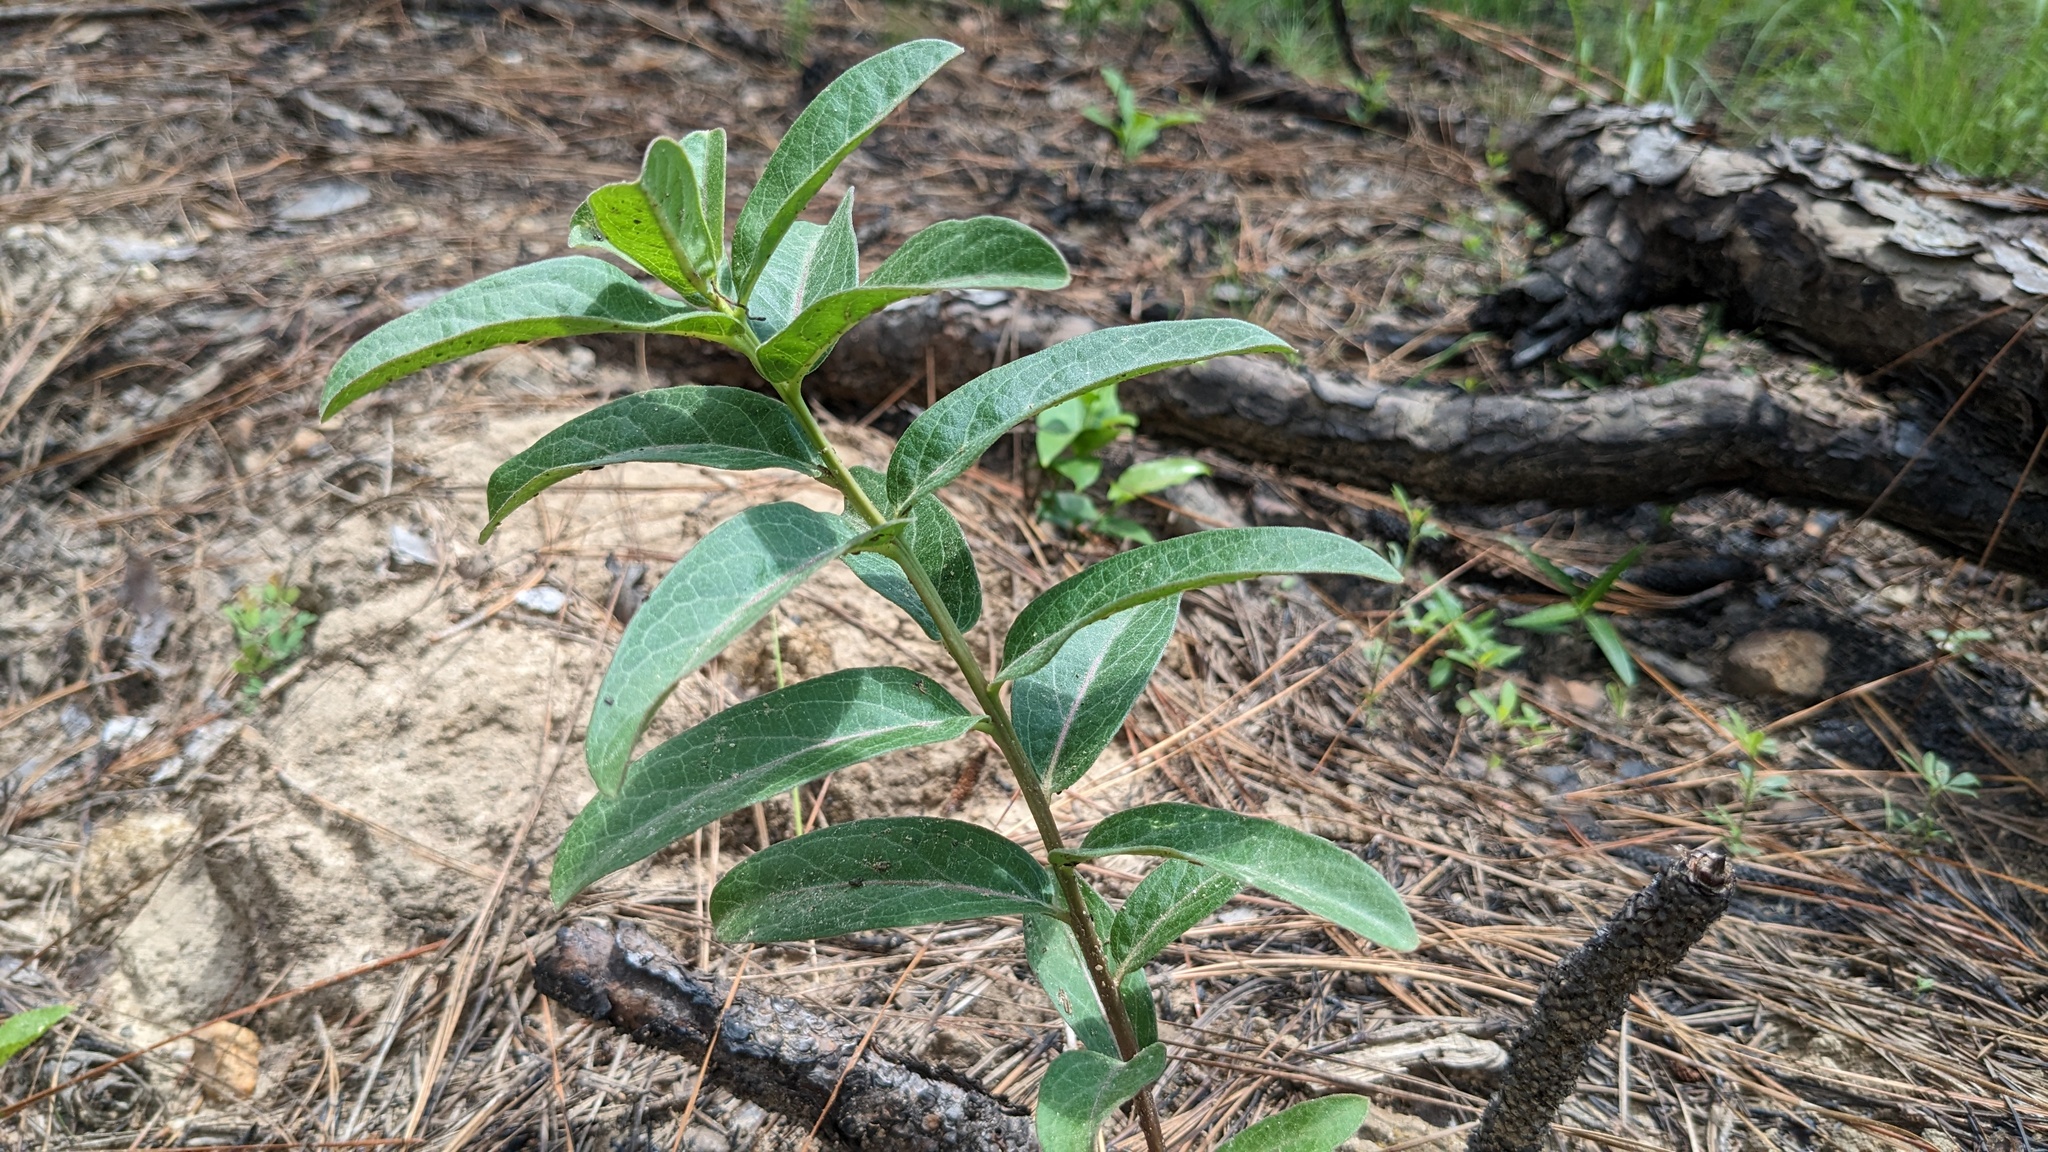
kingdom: Plantae
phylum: Tracheophyta
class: Magnoliopsida
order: Gentianales
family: Apocynaceae
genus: Asclepias
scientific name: Asclepias viridis
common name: Antelope-horns
